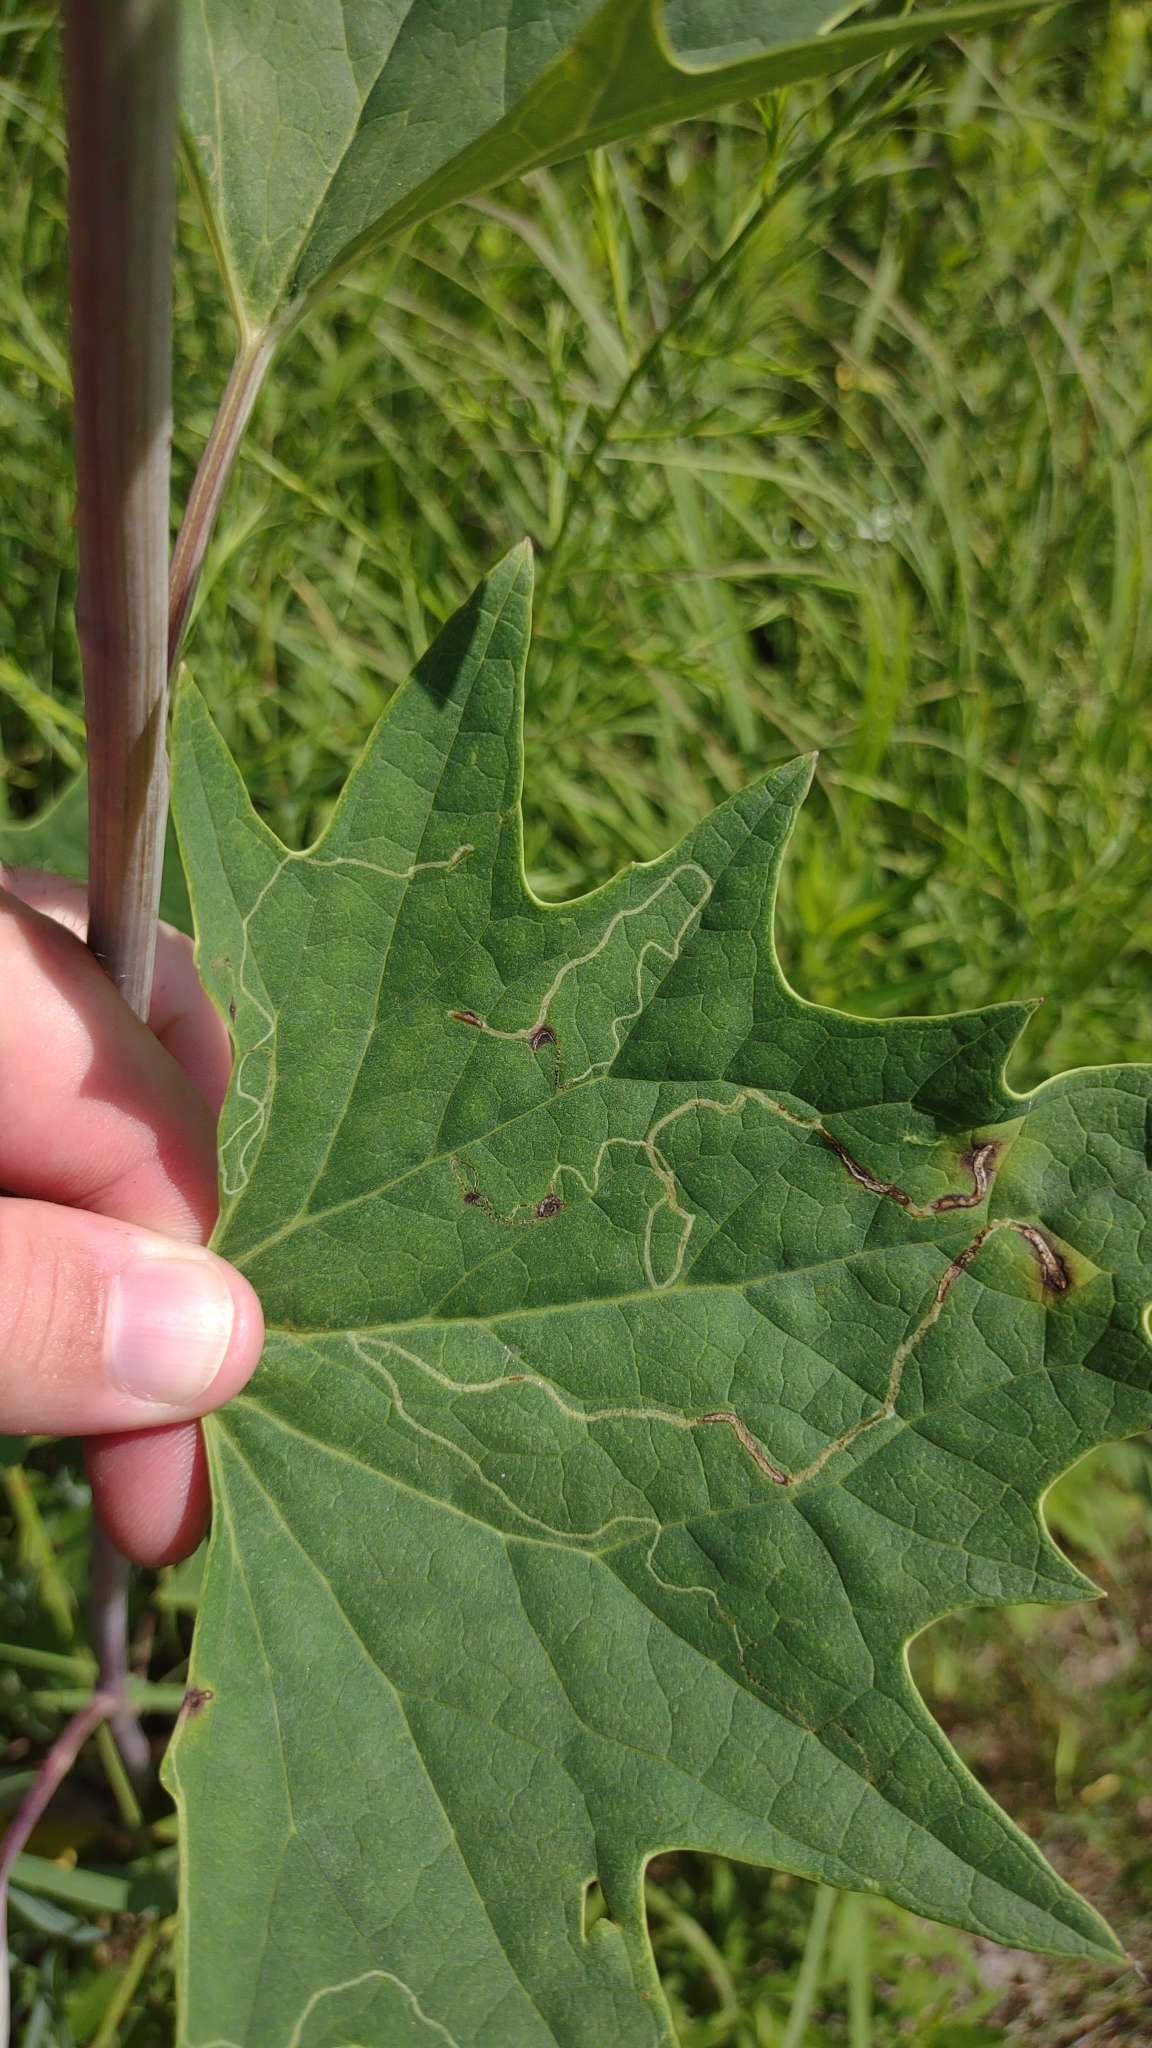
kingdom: Animalia
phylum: Arthropoda
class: Insecta
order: Lepidoptera
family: Gracillariidae
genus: Phyllocnistis
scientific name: Phyllocnistis insignis
